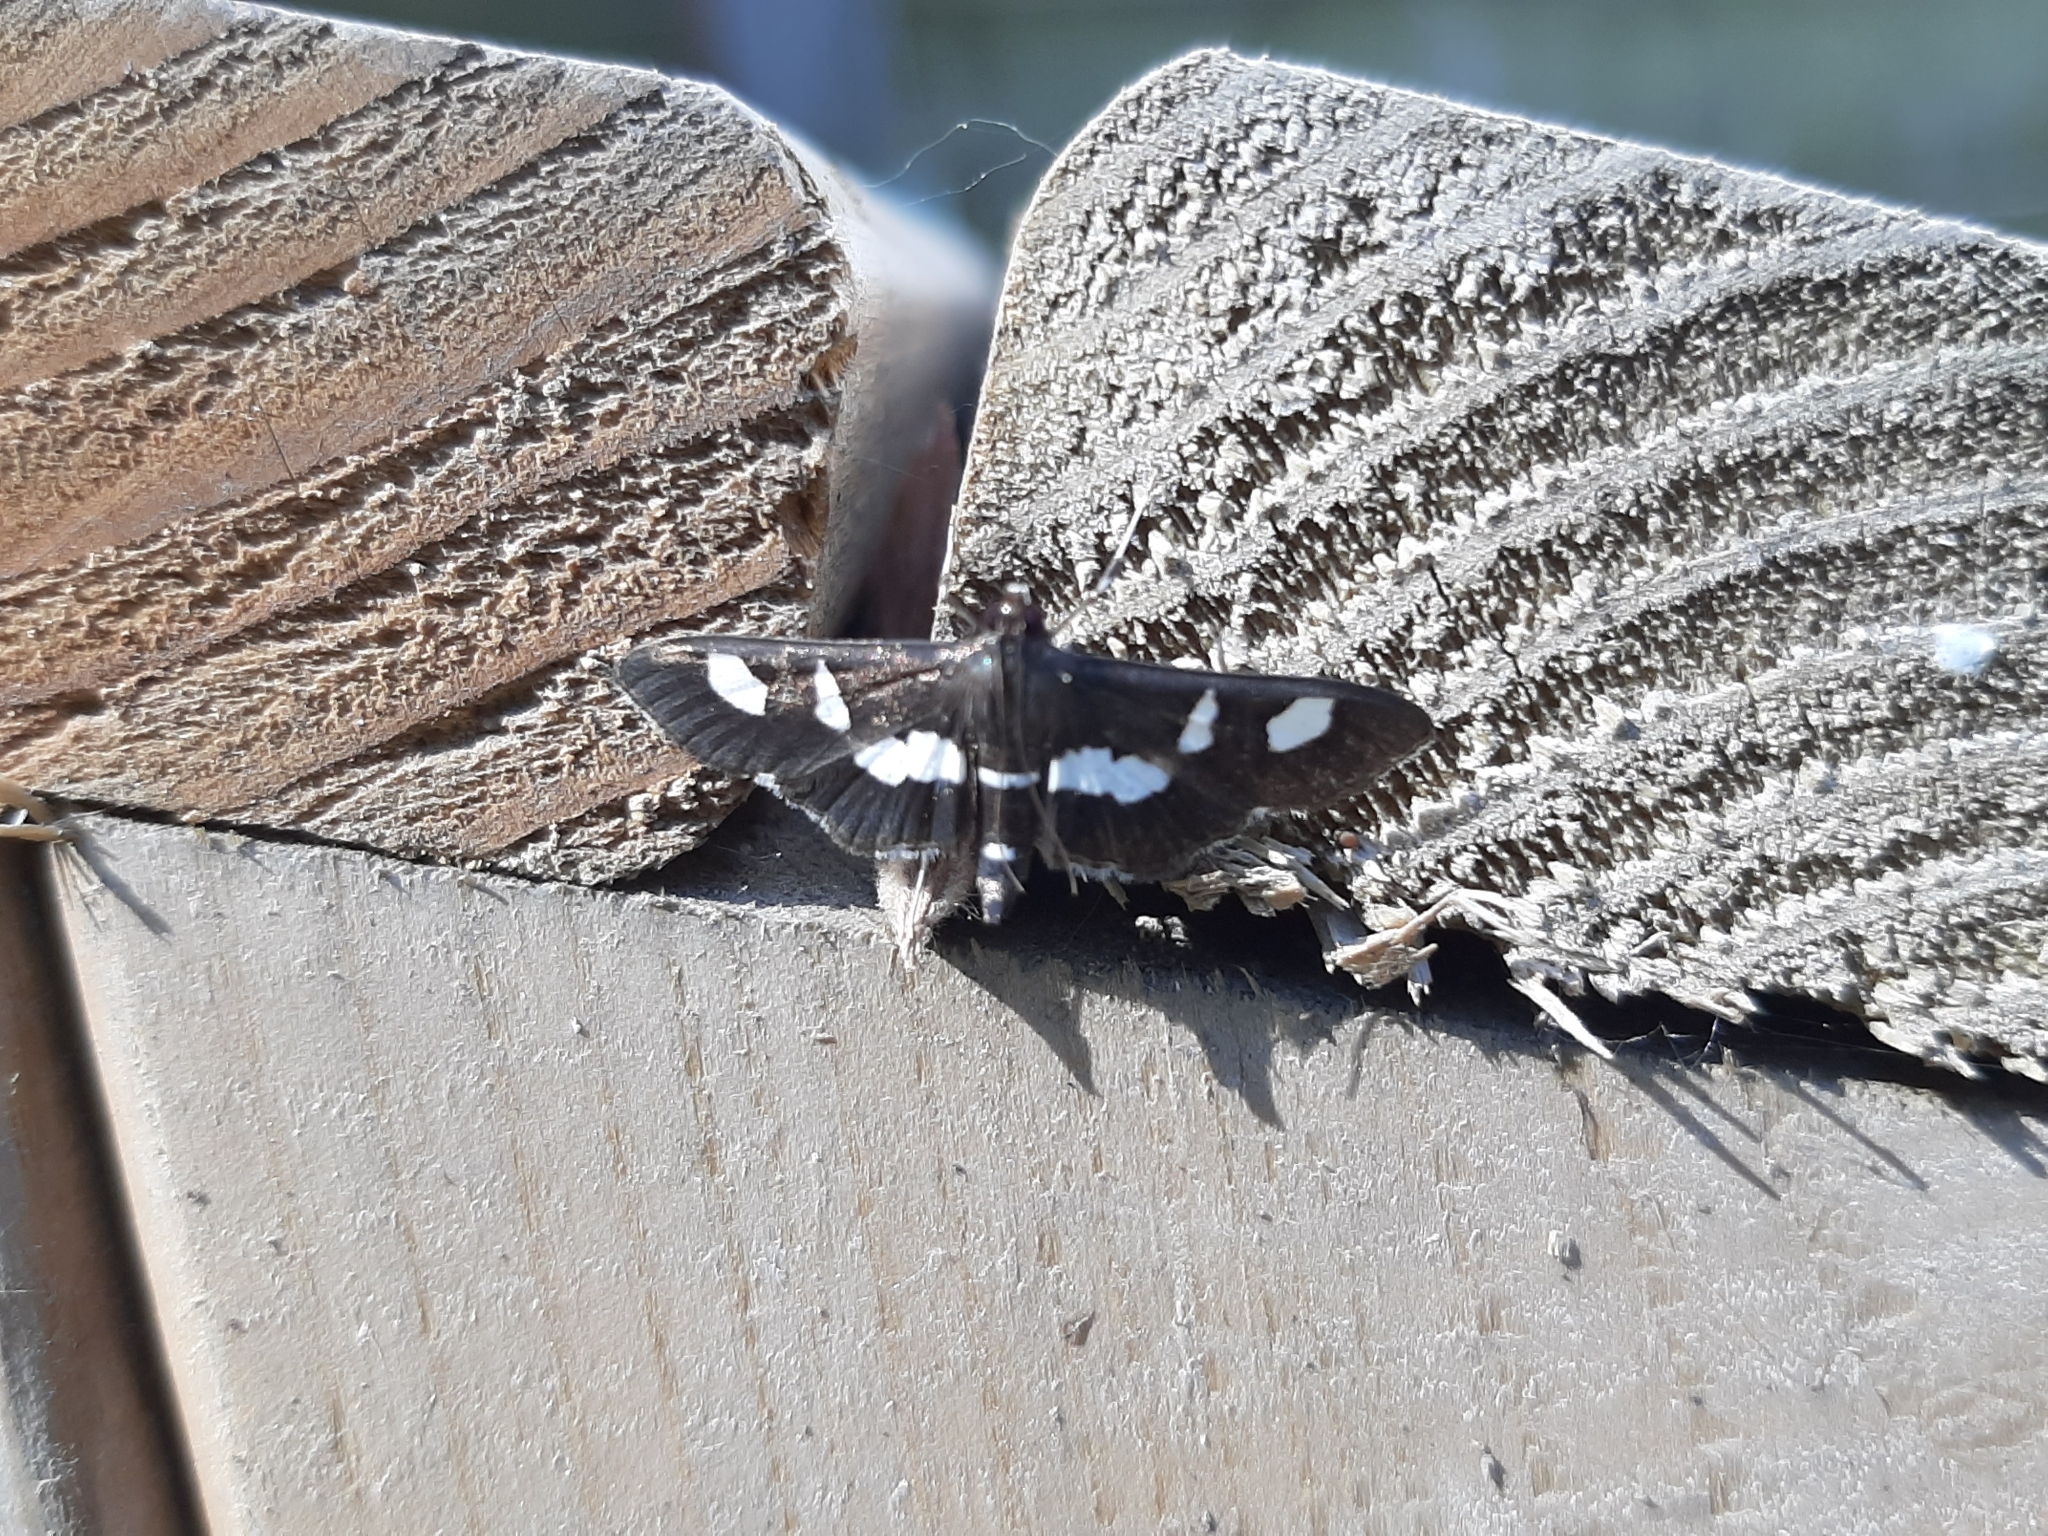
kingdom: Animalia
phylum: Arthropoda
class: Insecta
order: Lepidoptera
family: Crambidae
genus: Desmia
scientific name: Desmia
